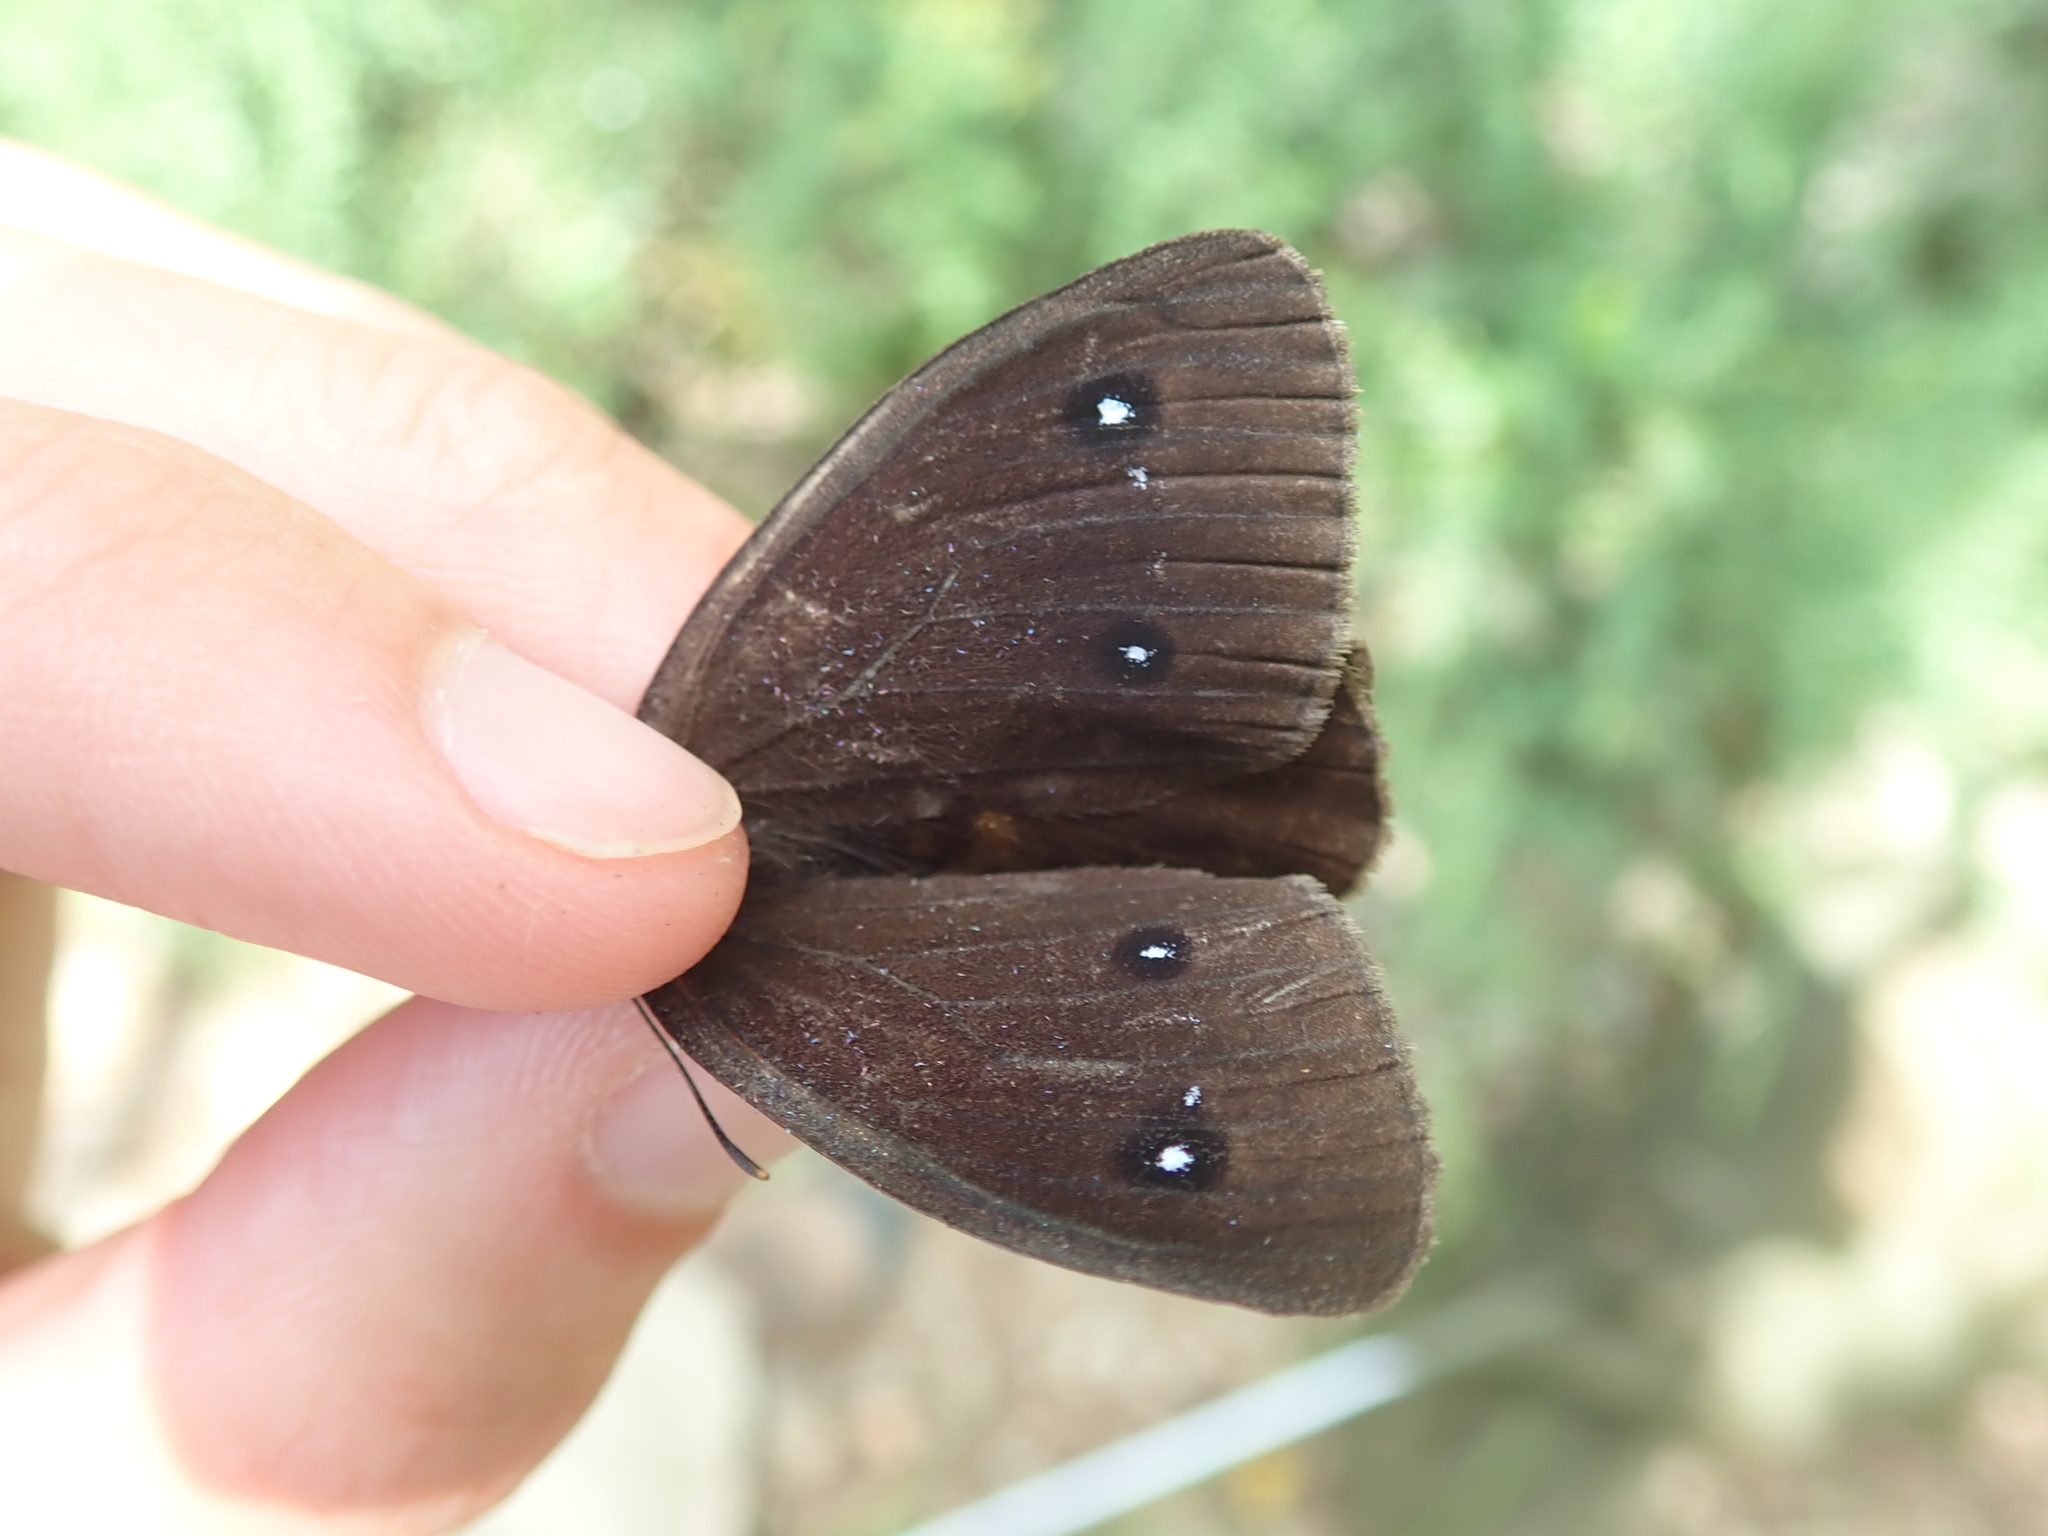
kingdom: Animalia
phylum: Arthropoda
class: Insecta
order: Lepidoptera
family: Nymphalidae
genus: Satyrus
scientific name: Satyrus ferula
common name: Great sooty satyr
